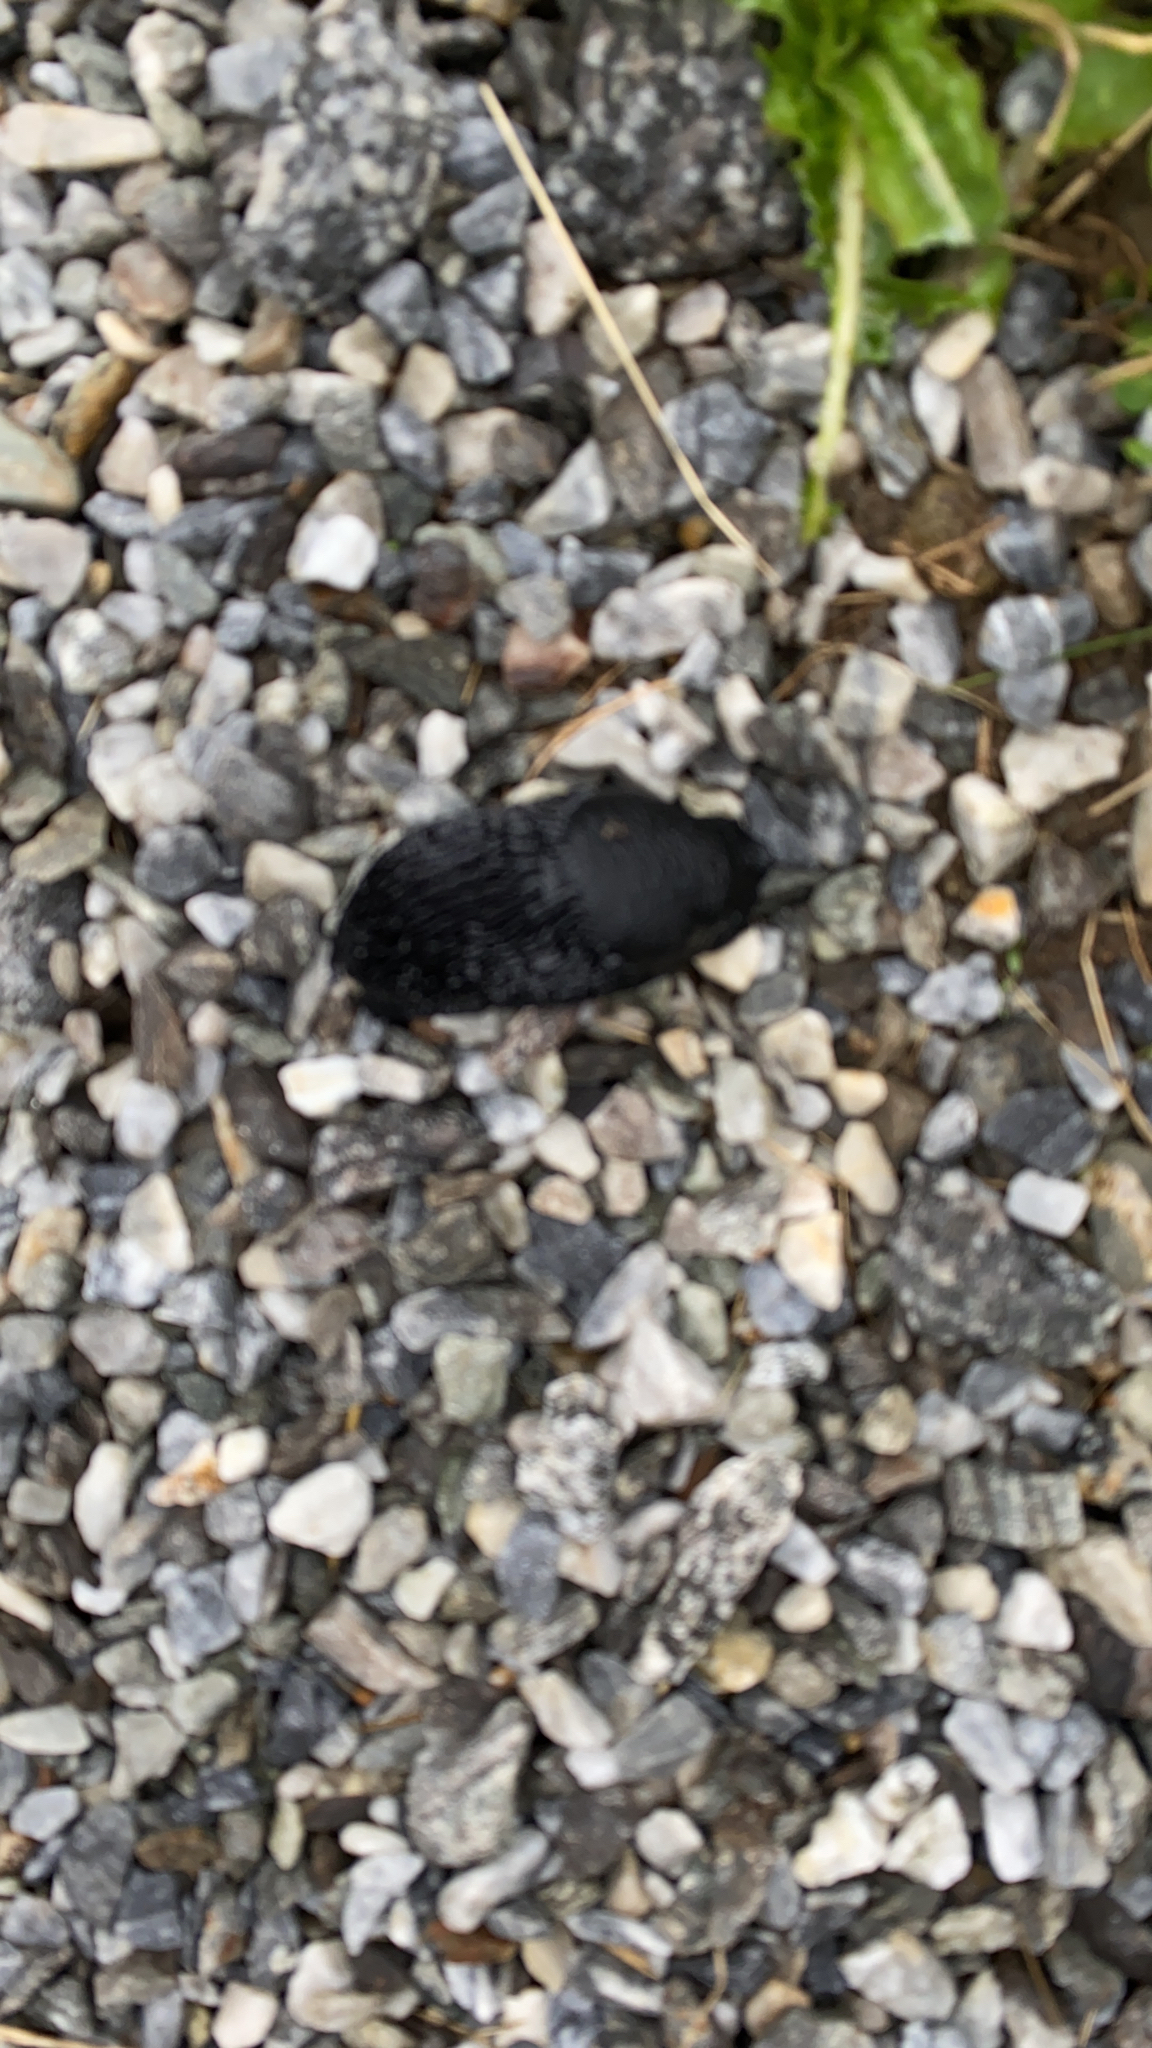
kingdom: Animalia
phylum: Mollusca
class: Gastropoda
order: Stylommatophora
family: Arionidae
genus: Arion
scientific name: Arion ater
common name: Black arion
